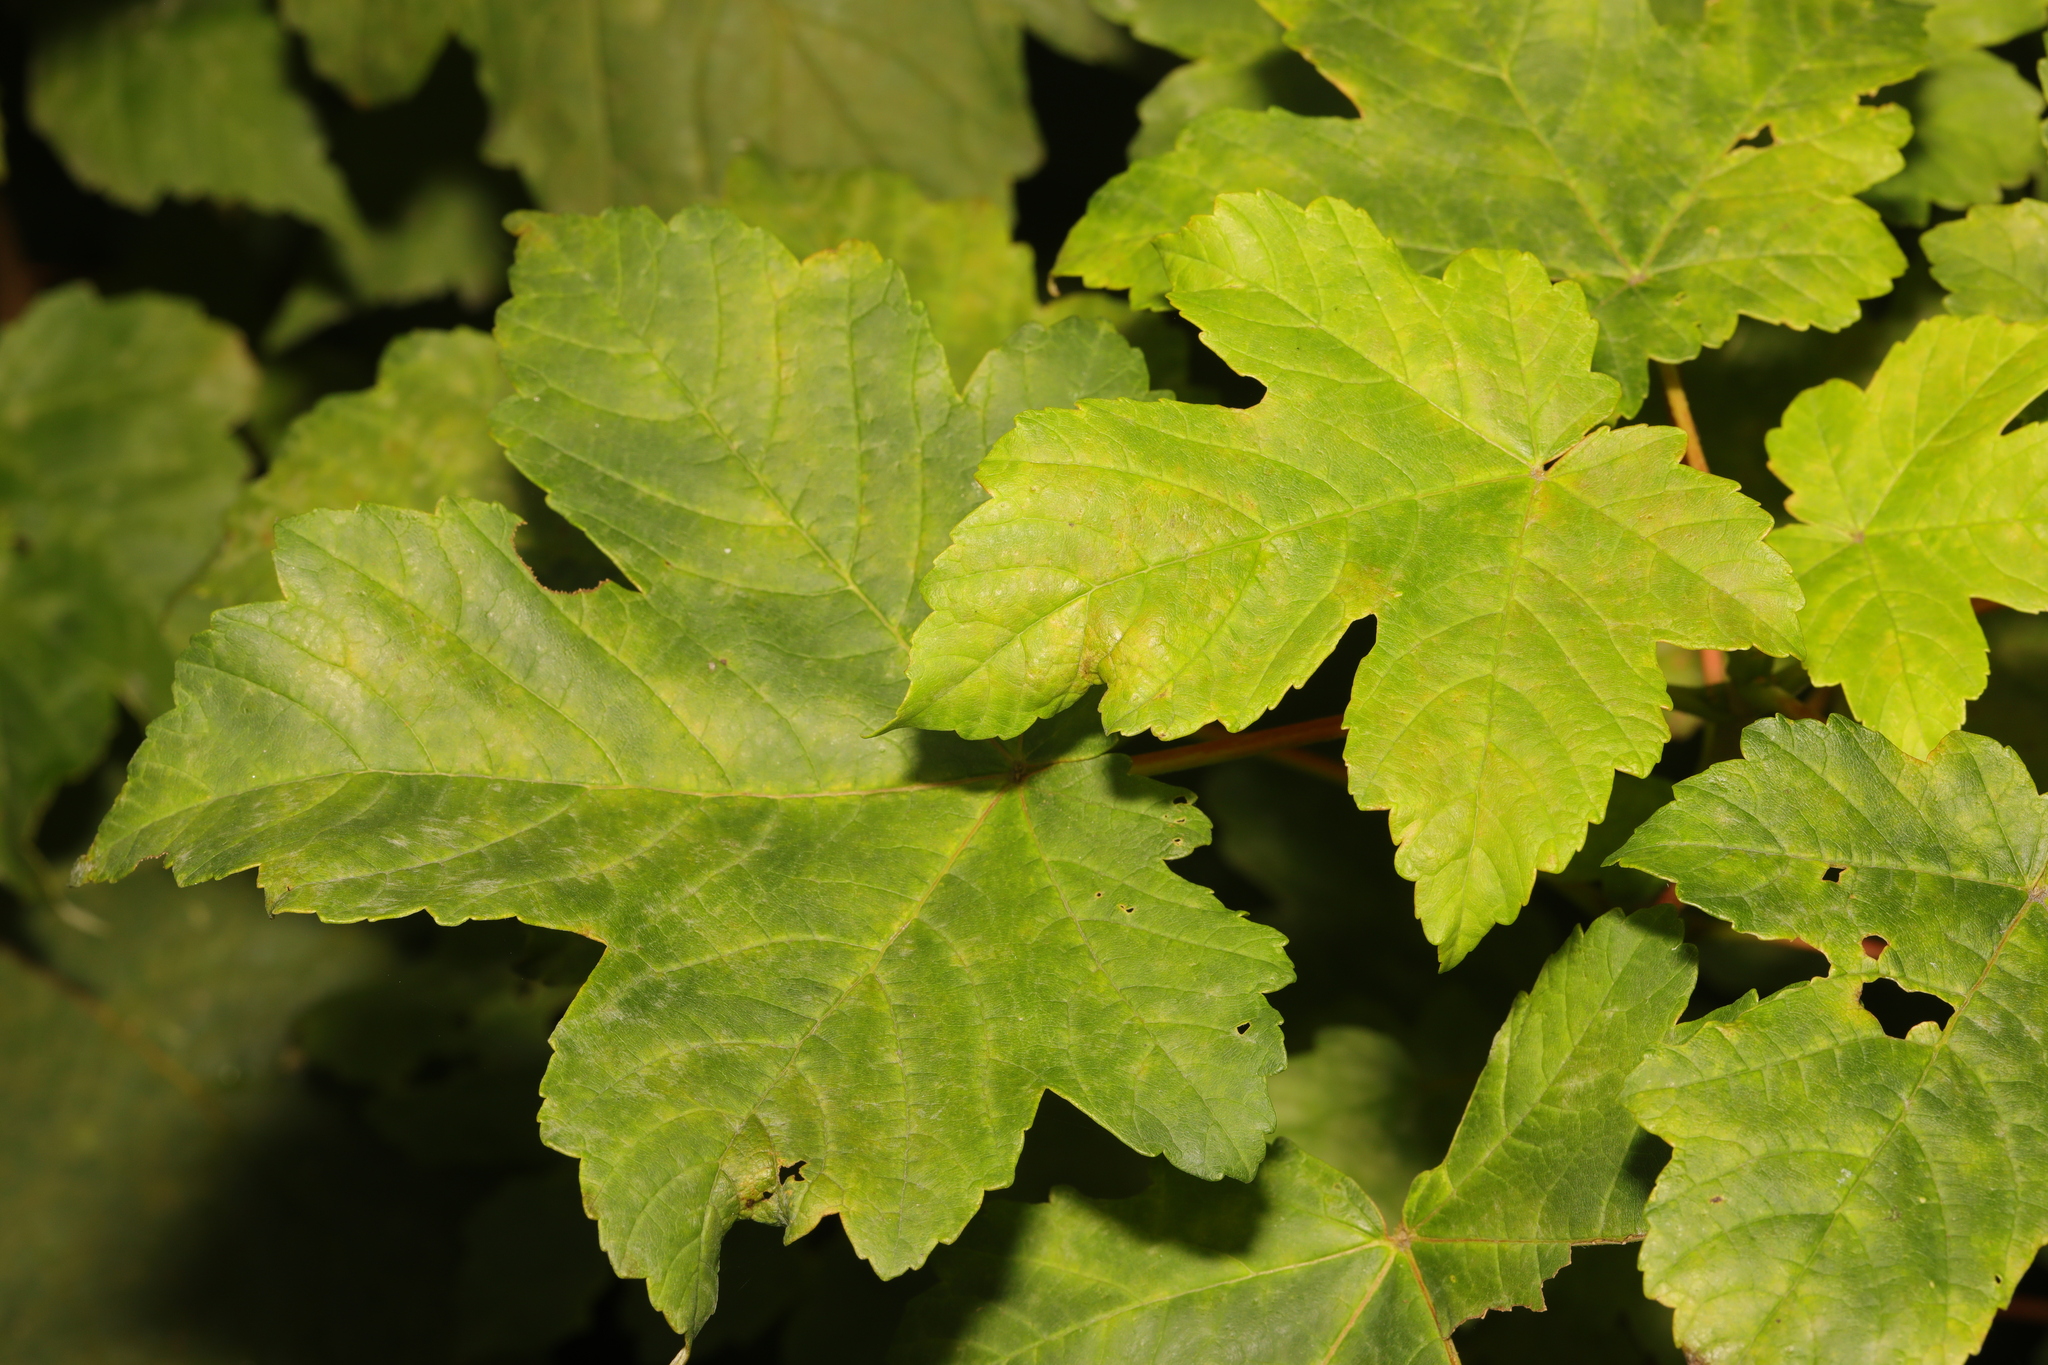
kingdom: Plantae
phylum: Tracheophyta
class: Magnoliopsida
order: Sapindales
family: Sapindaceae
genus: Acer
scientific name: Acer pseudoplatanus
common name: Sycamore
